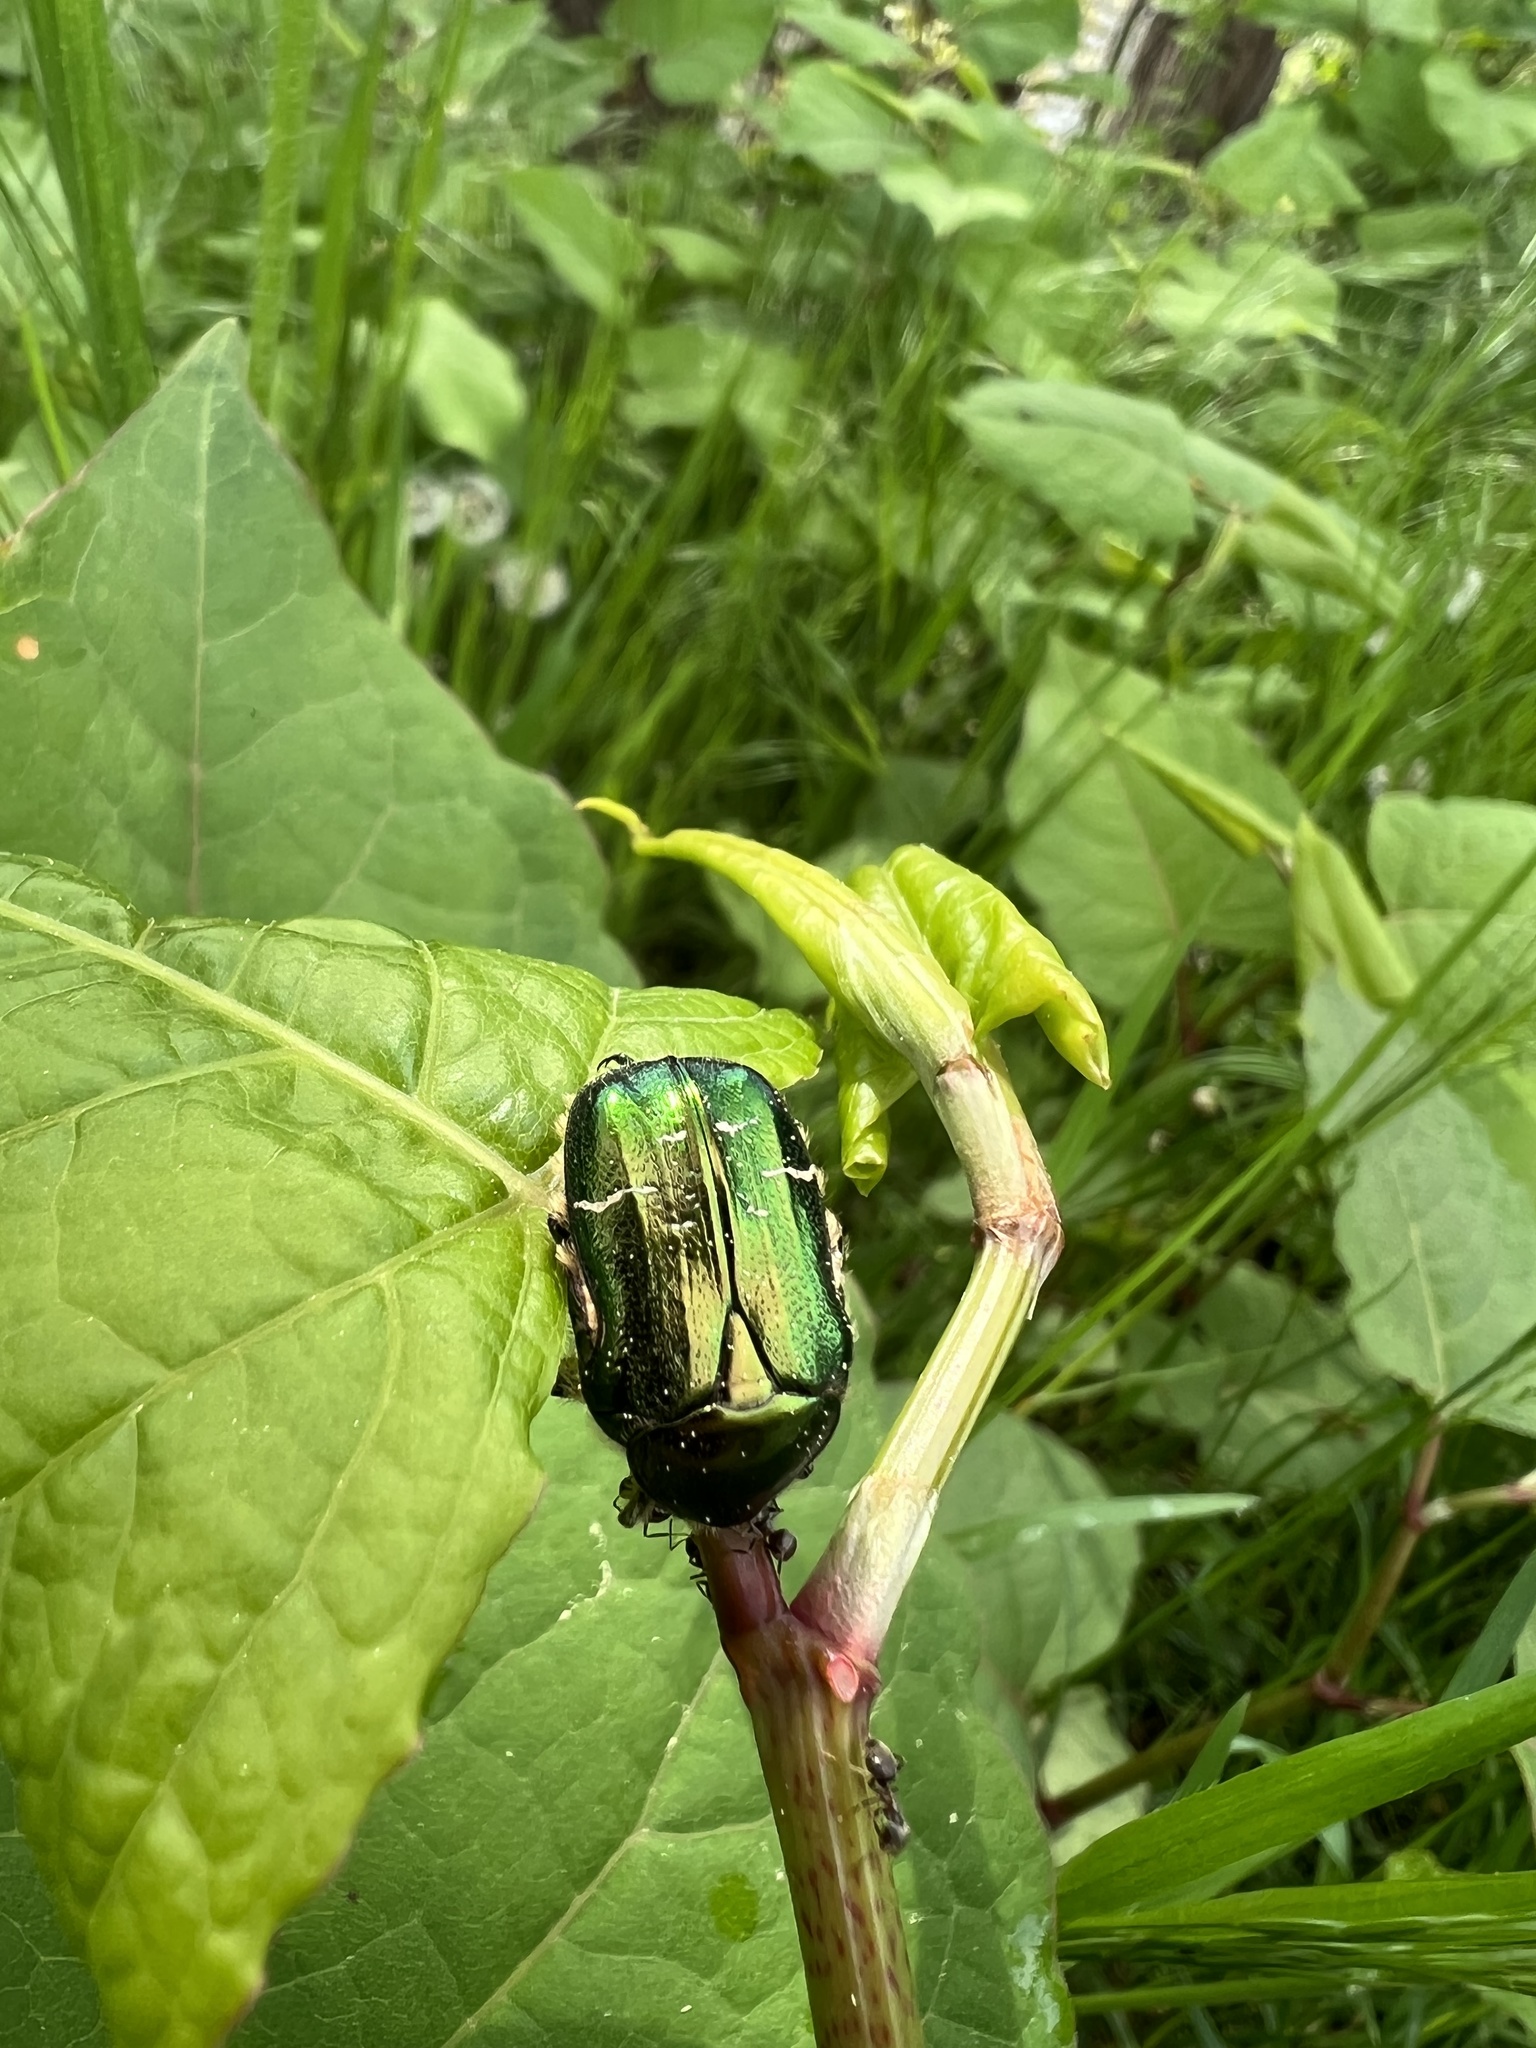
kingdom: Animalia
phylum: Arthropoda
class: Insecta
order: Coleoptera
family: Scarabaeidae
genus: Cetonia
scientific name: Cetonia aurata
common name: Rose chafer
